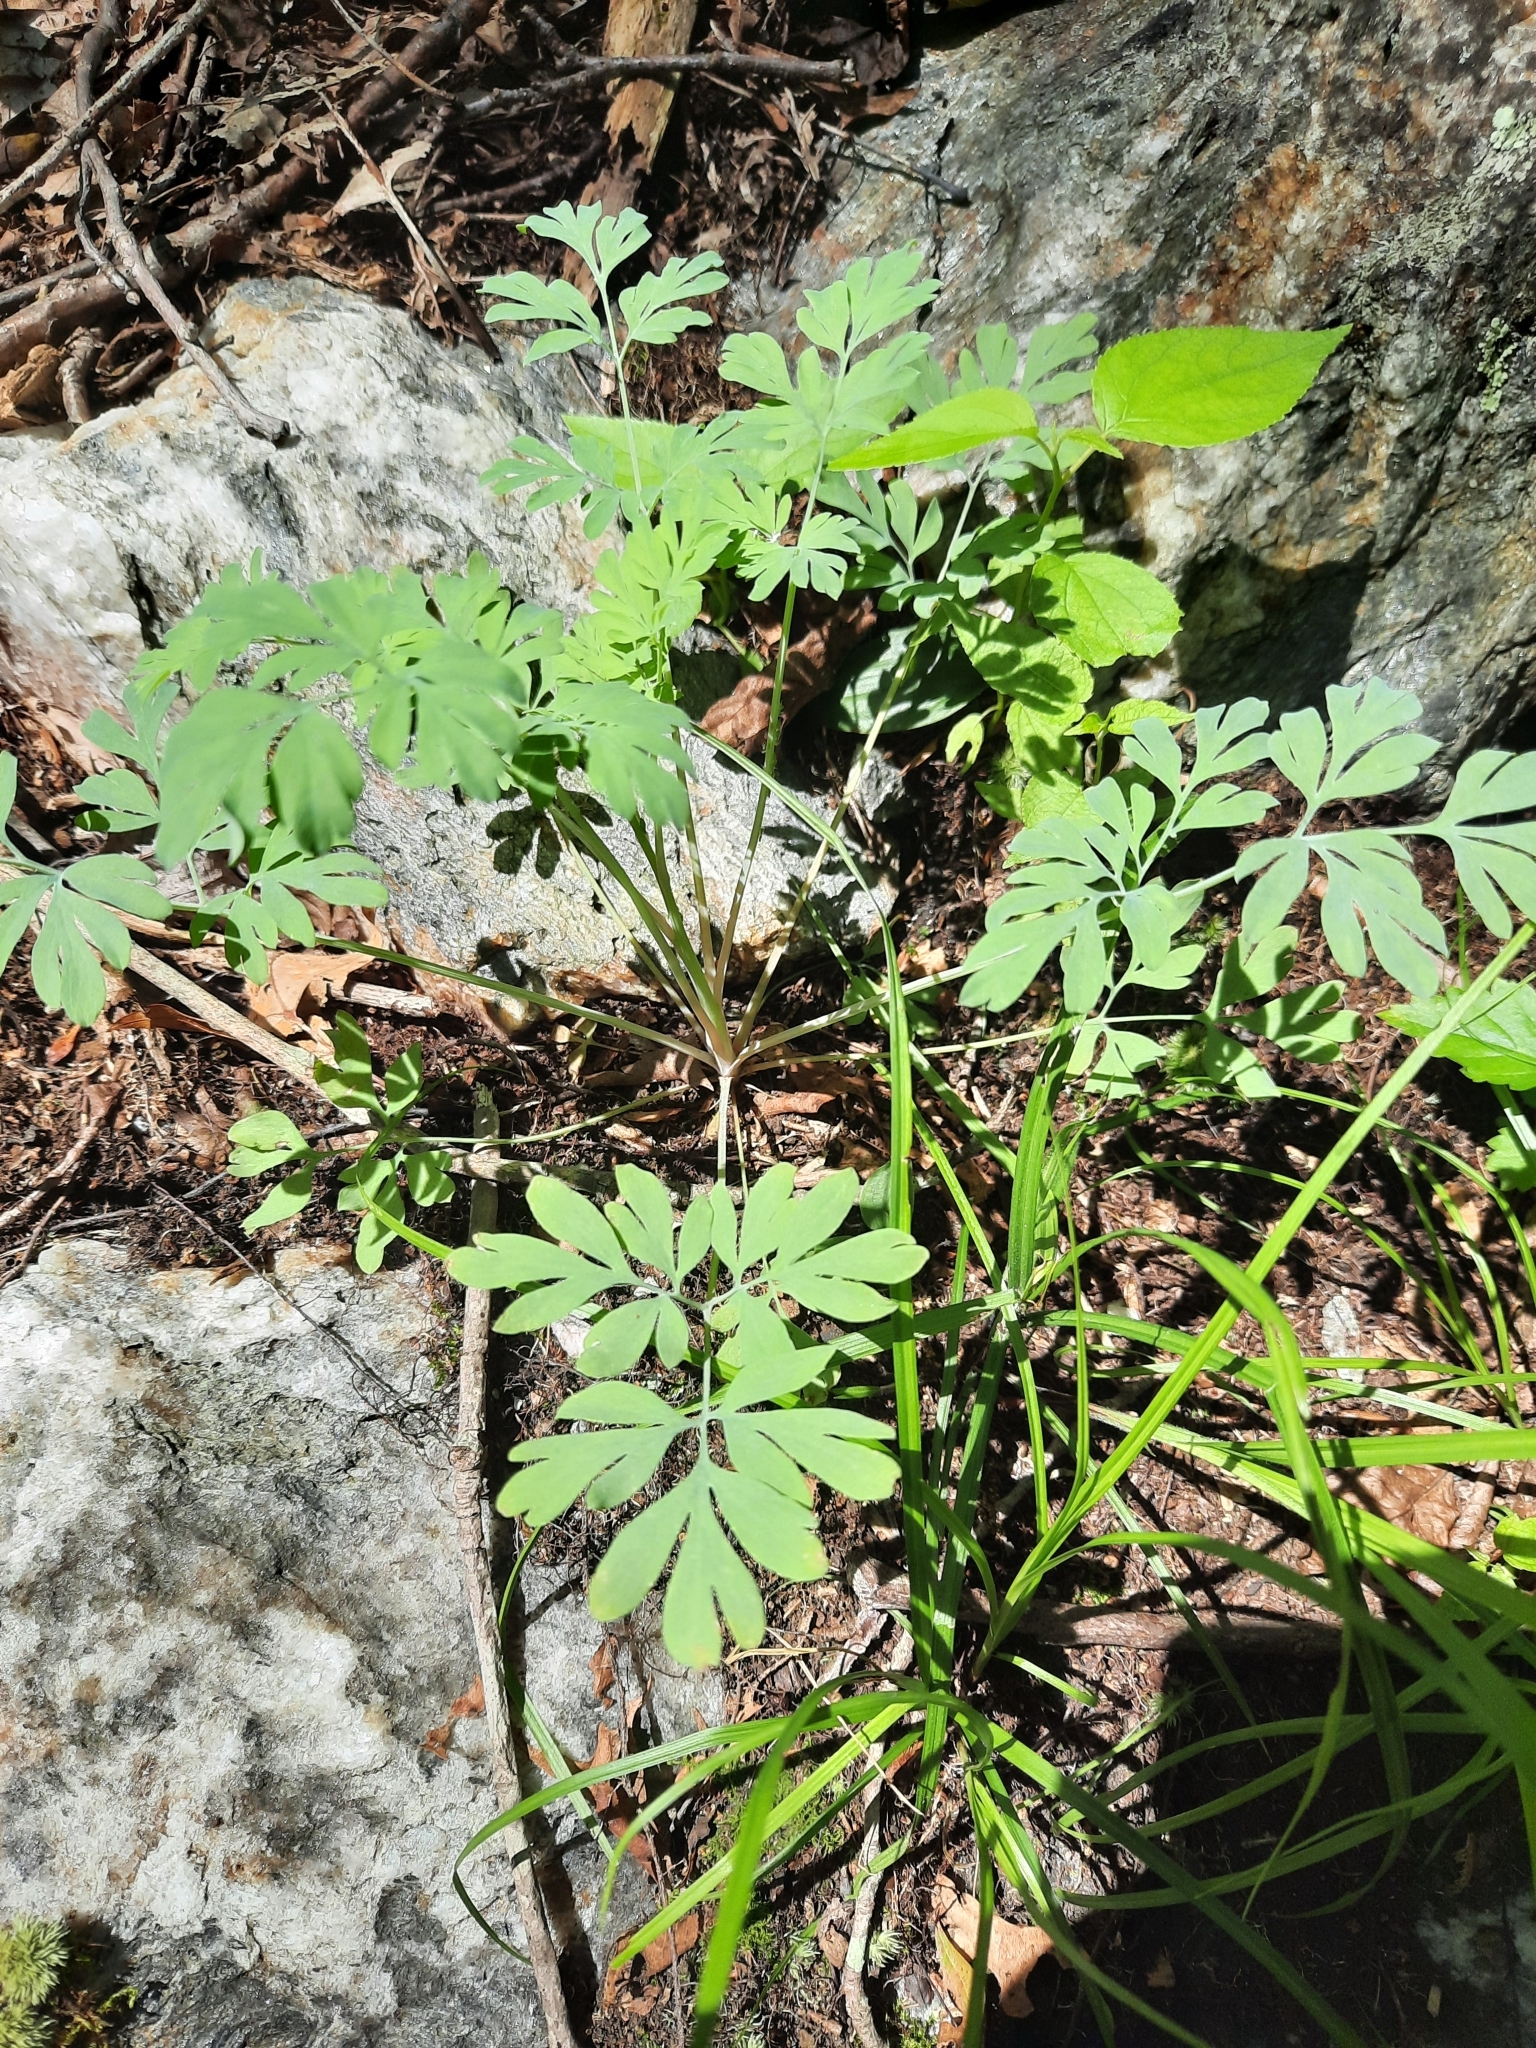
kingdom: Plantae
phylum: Tracheophyta
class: Magnoliopsida
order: Ranunculales
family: Papaveraceae
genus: Capnoides
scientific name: Capnoides sempervirens
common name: Rock harlequin
